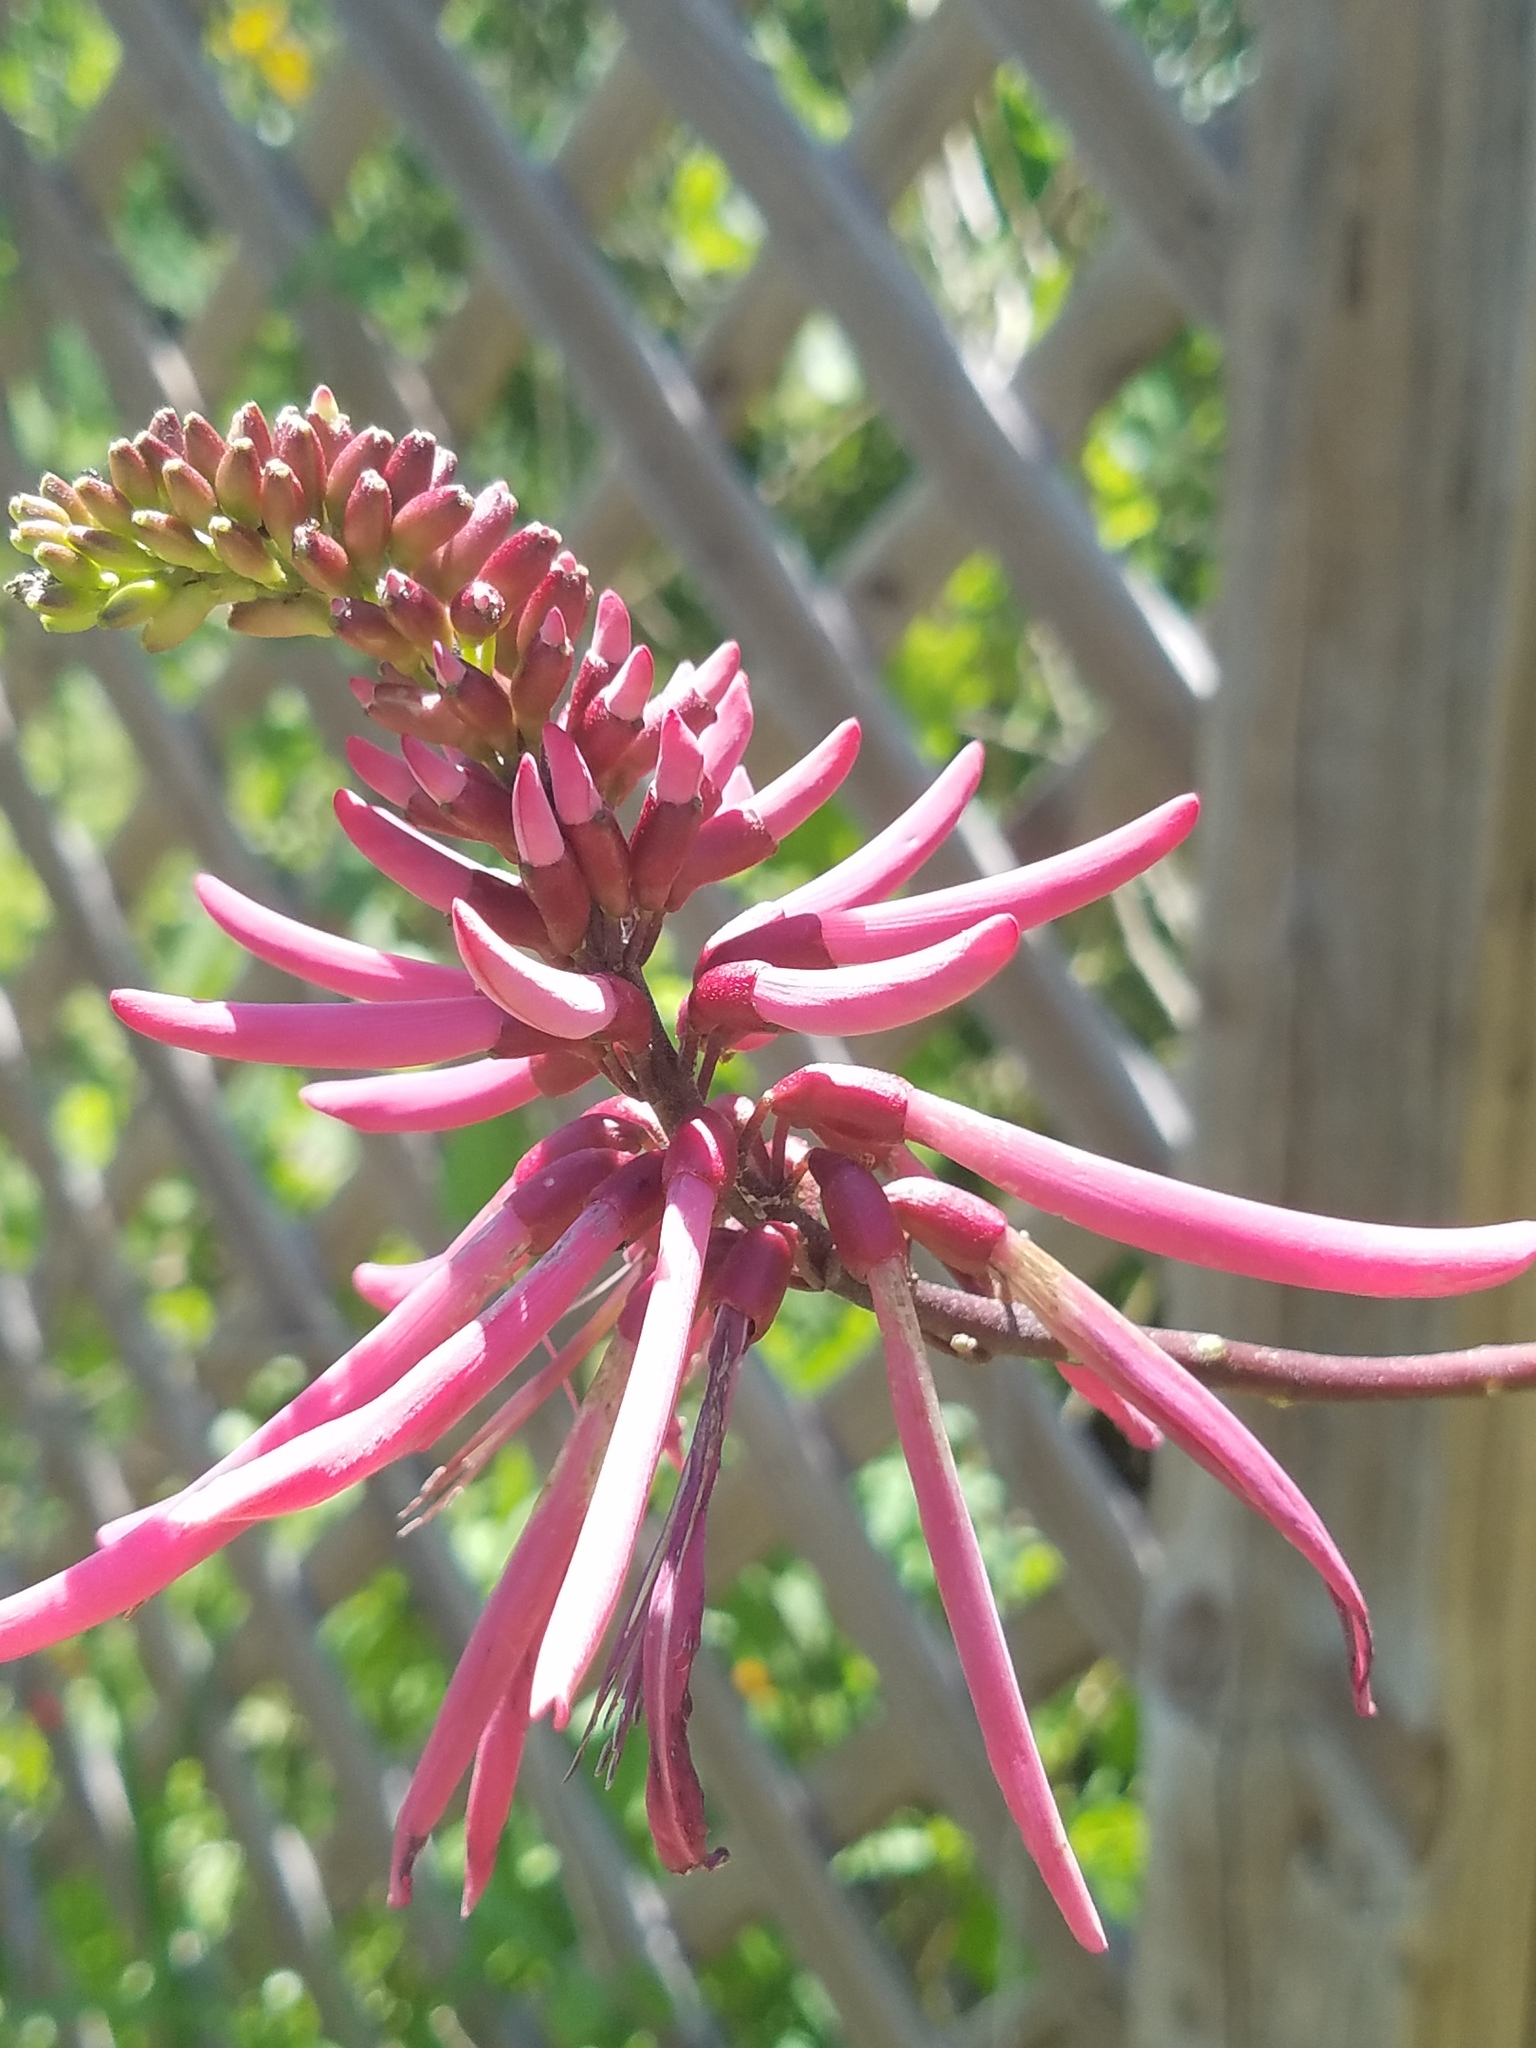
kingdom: Plantae
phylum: Tracheophyta
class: Magnoliopsida
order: Fabales
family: Fabaceae
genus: Erythrina
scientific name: Erythrina herbacea
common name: Coral-bean
